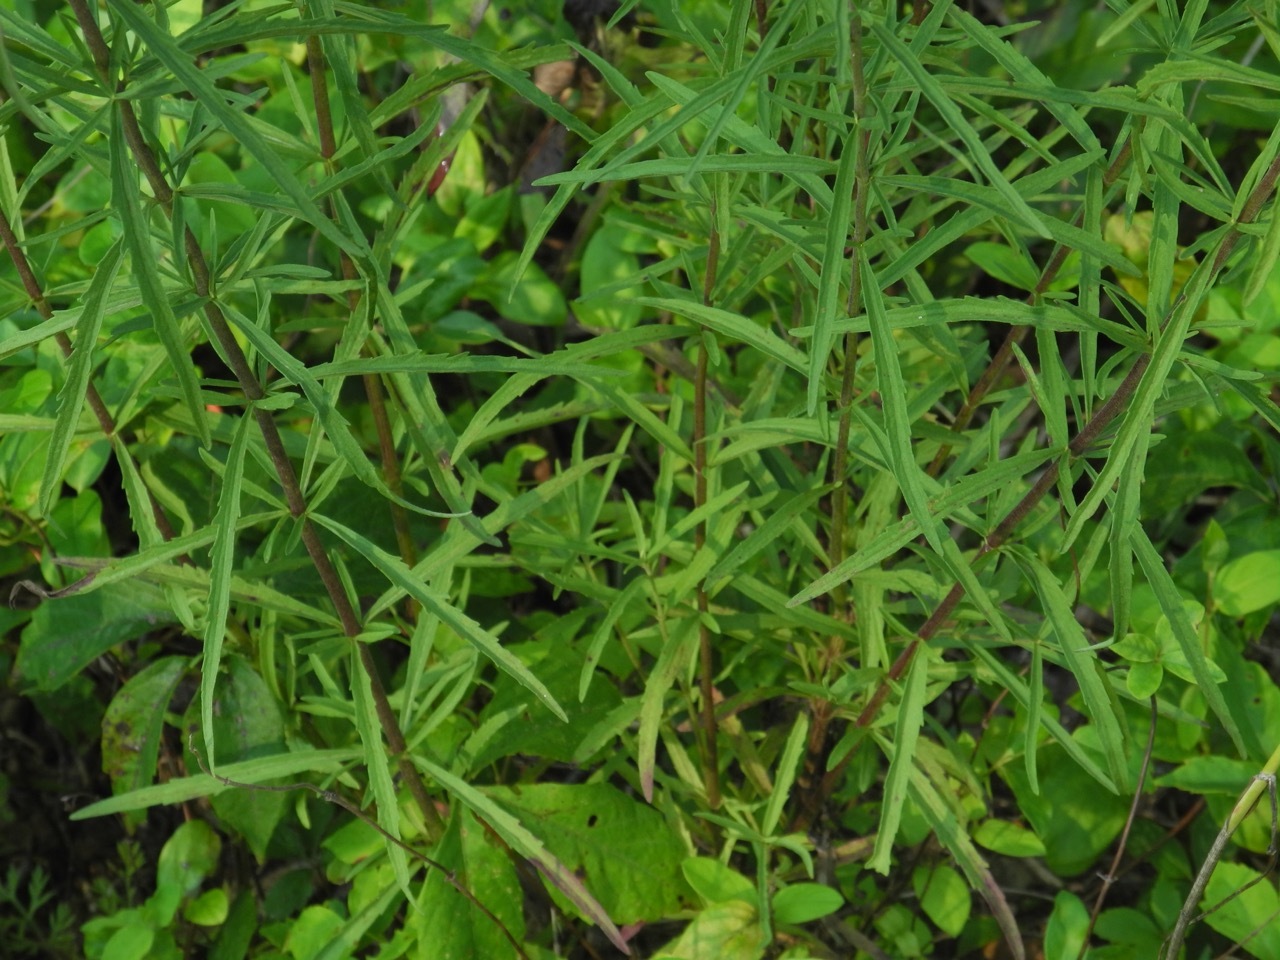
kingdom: Plantae
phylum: Tracheophyta
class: Magnoliopsida
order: Asterales
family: Asteraceae
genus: Eupatorium
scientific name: Eupatorium hyssopifolium
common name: Hyssop-leaf thoroughwort
